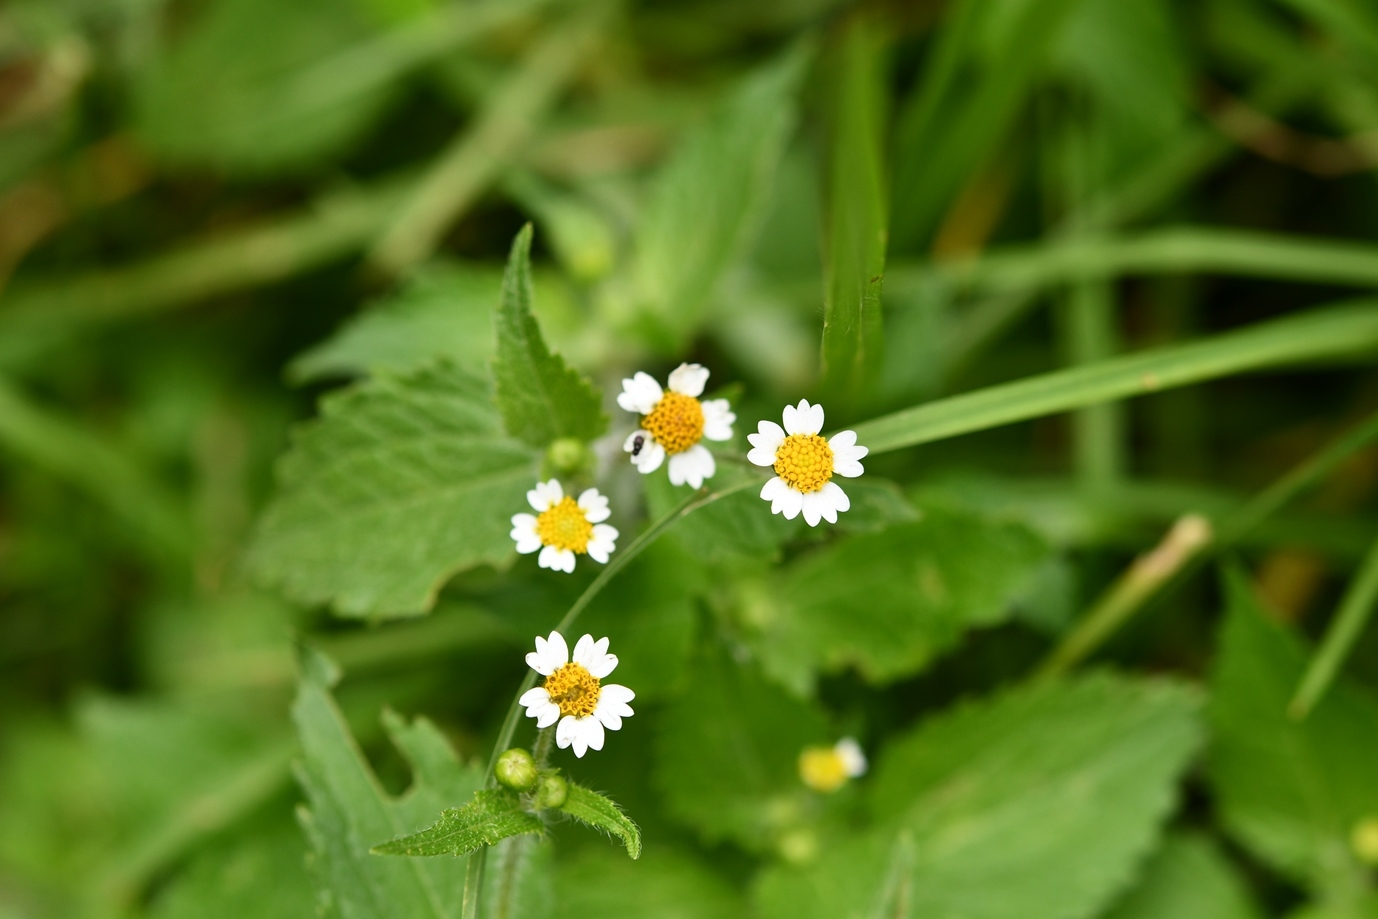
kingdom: Plantae
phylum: Tracheophyta
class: Magnoliopsida
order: Asterales
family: Asteraceae
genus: Galinsoga
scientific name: Galinsoga quadriradiata
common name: Shaggy soldier
